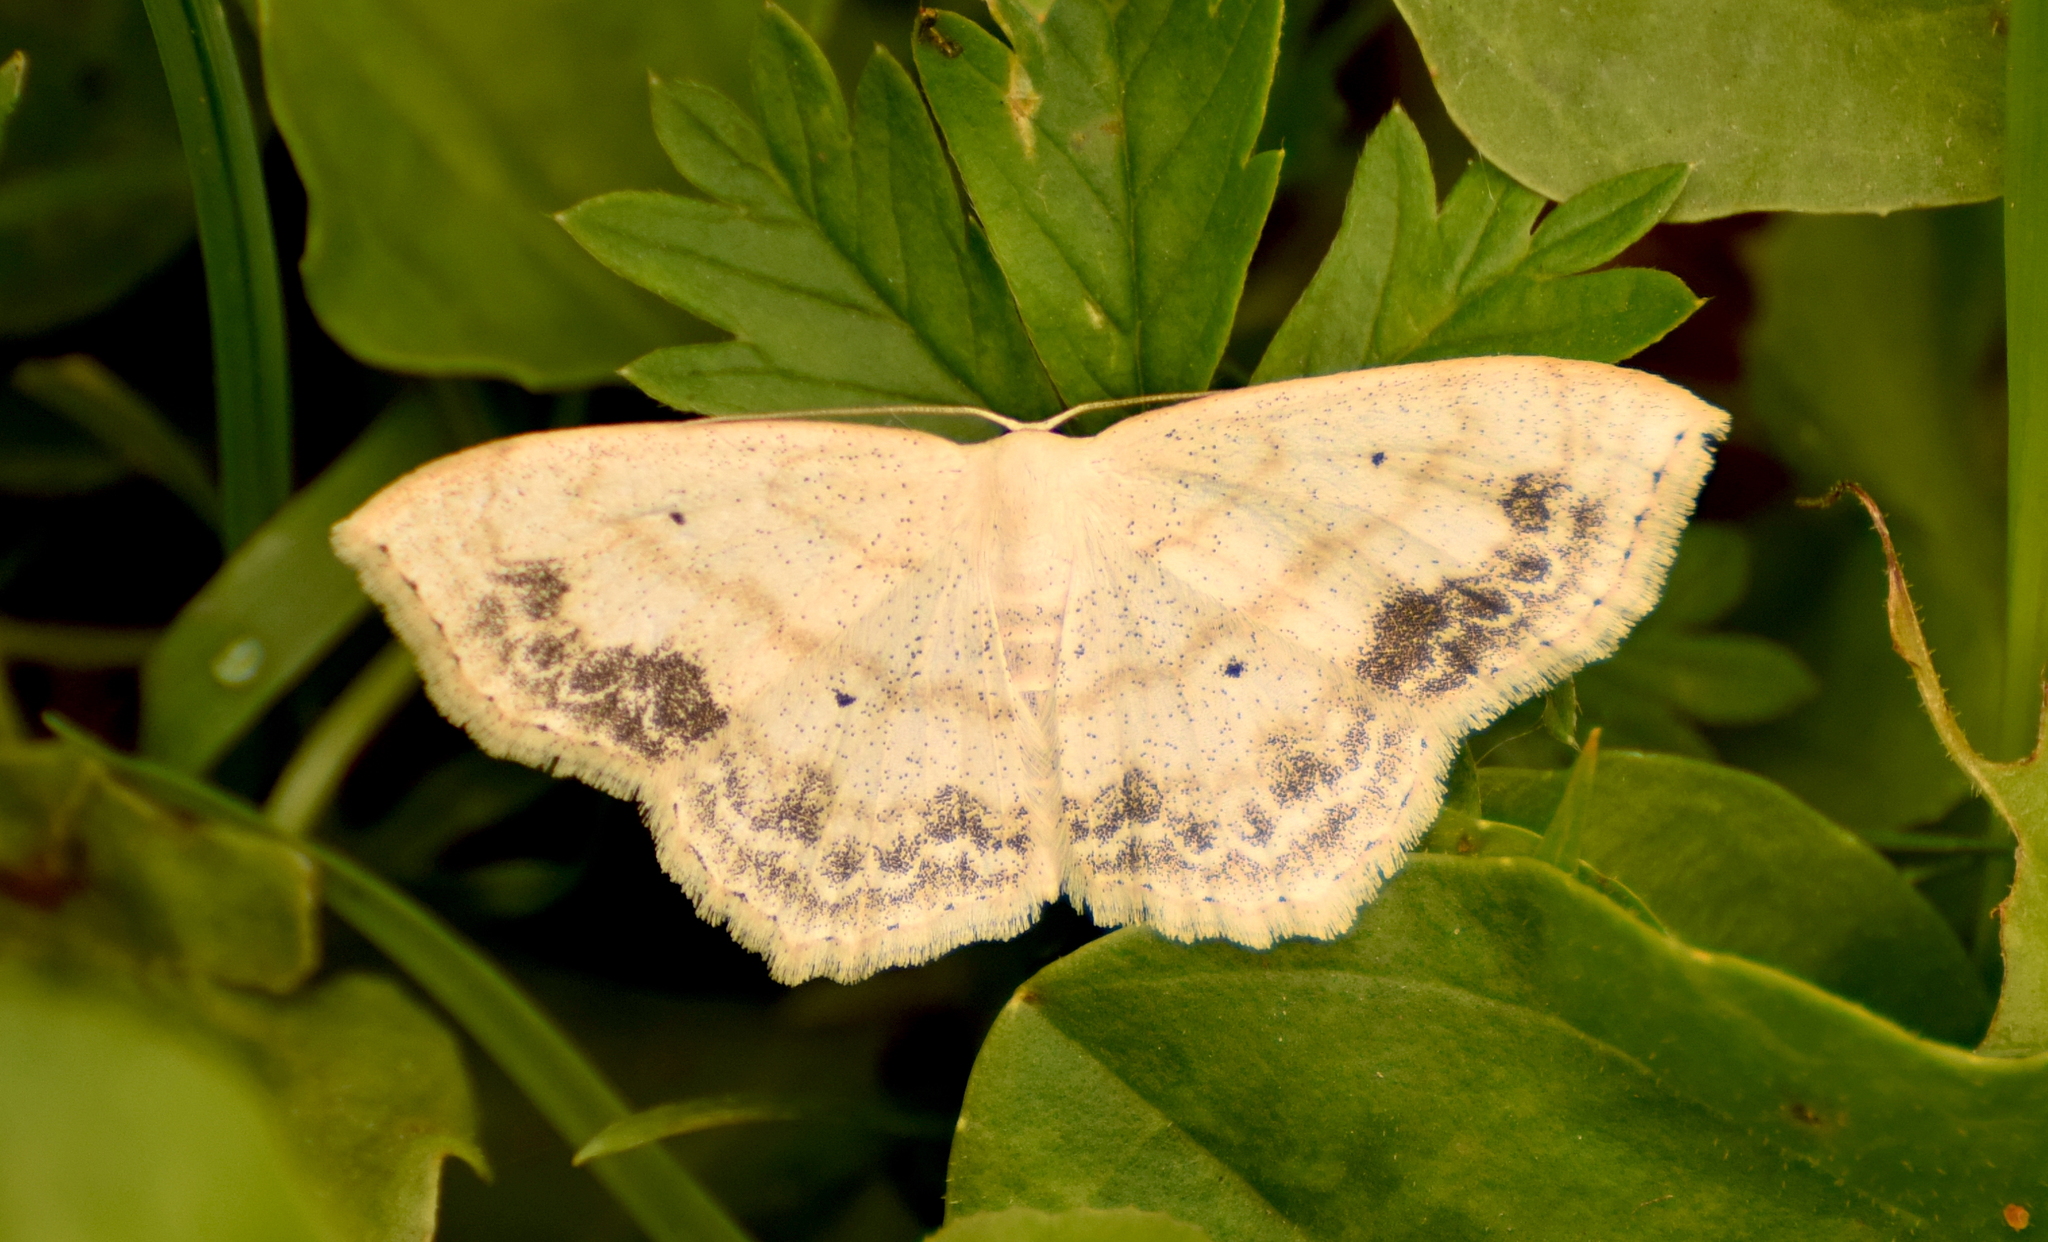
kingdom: Animalia
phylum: Arthropoda
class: Insecta
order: Lepidoptera
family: Geometridae
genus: Scopula
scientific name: Scopula limboundata
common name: Large lace border
